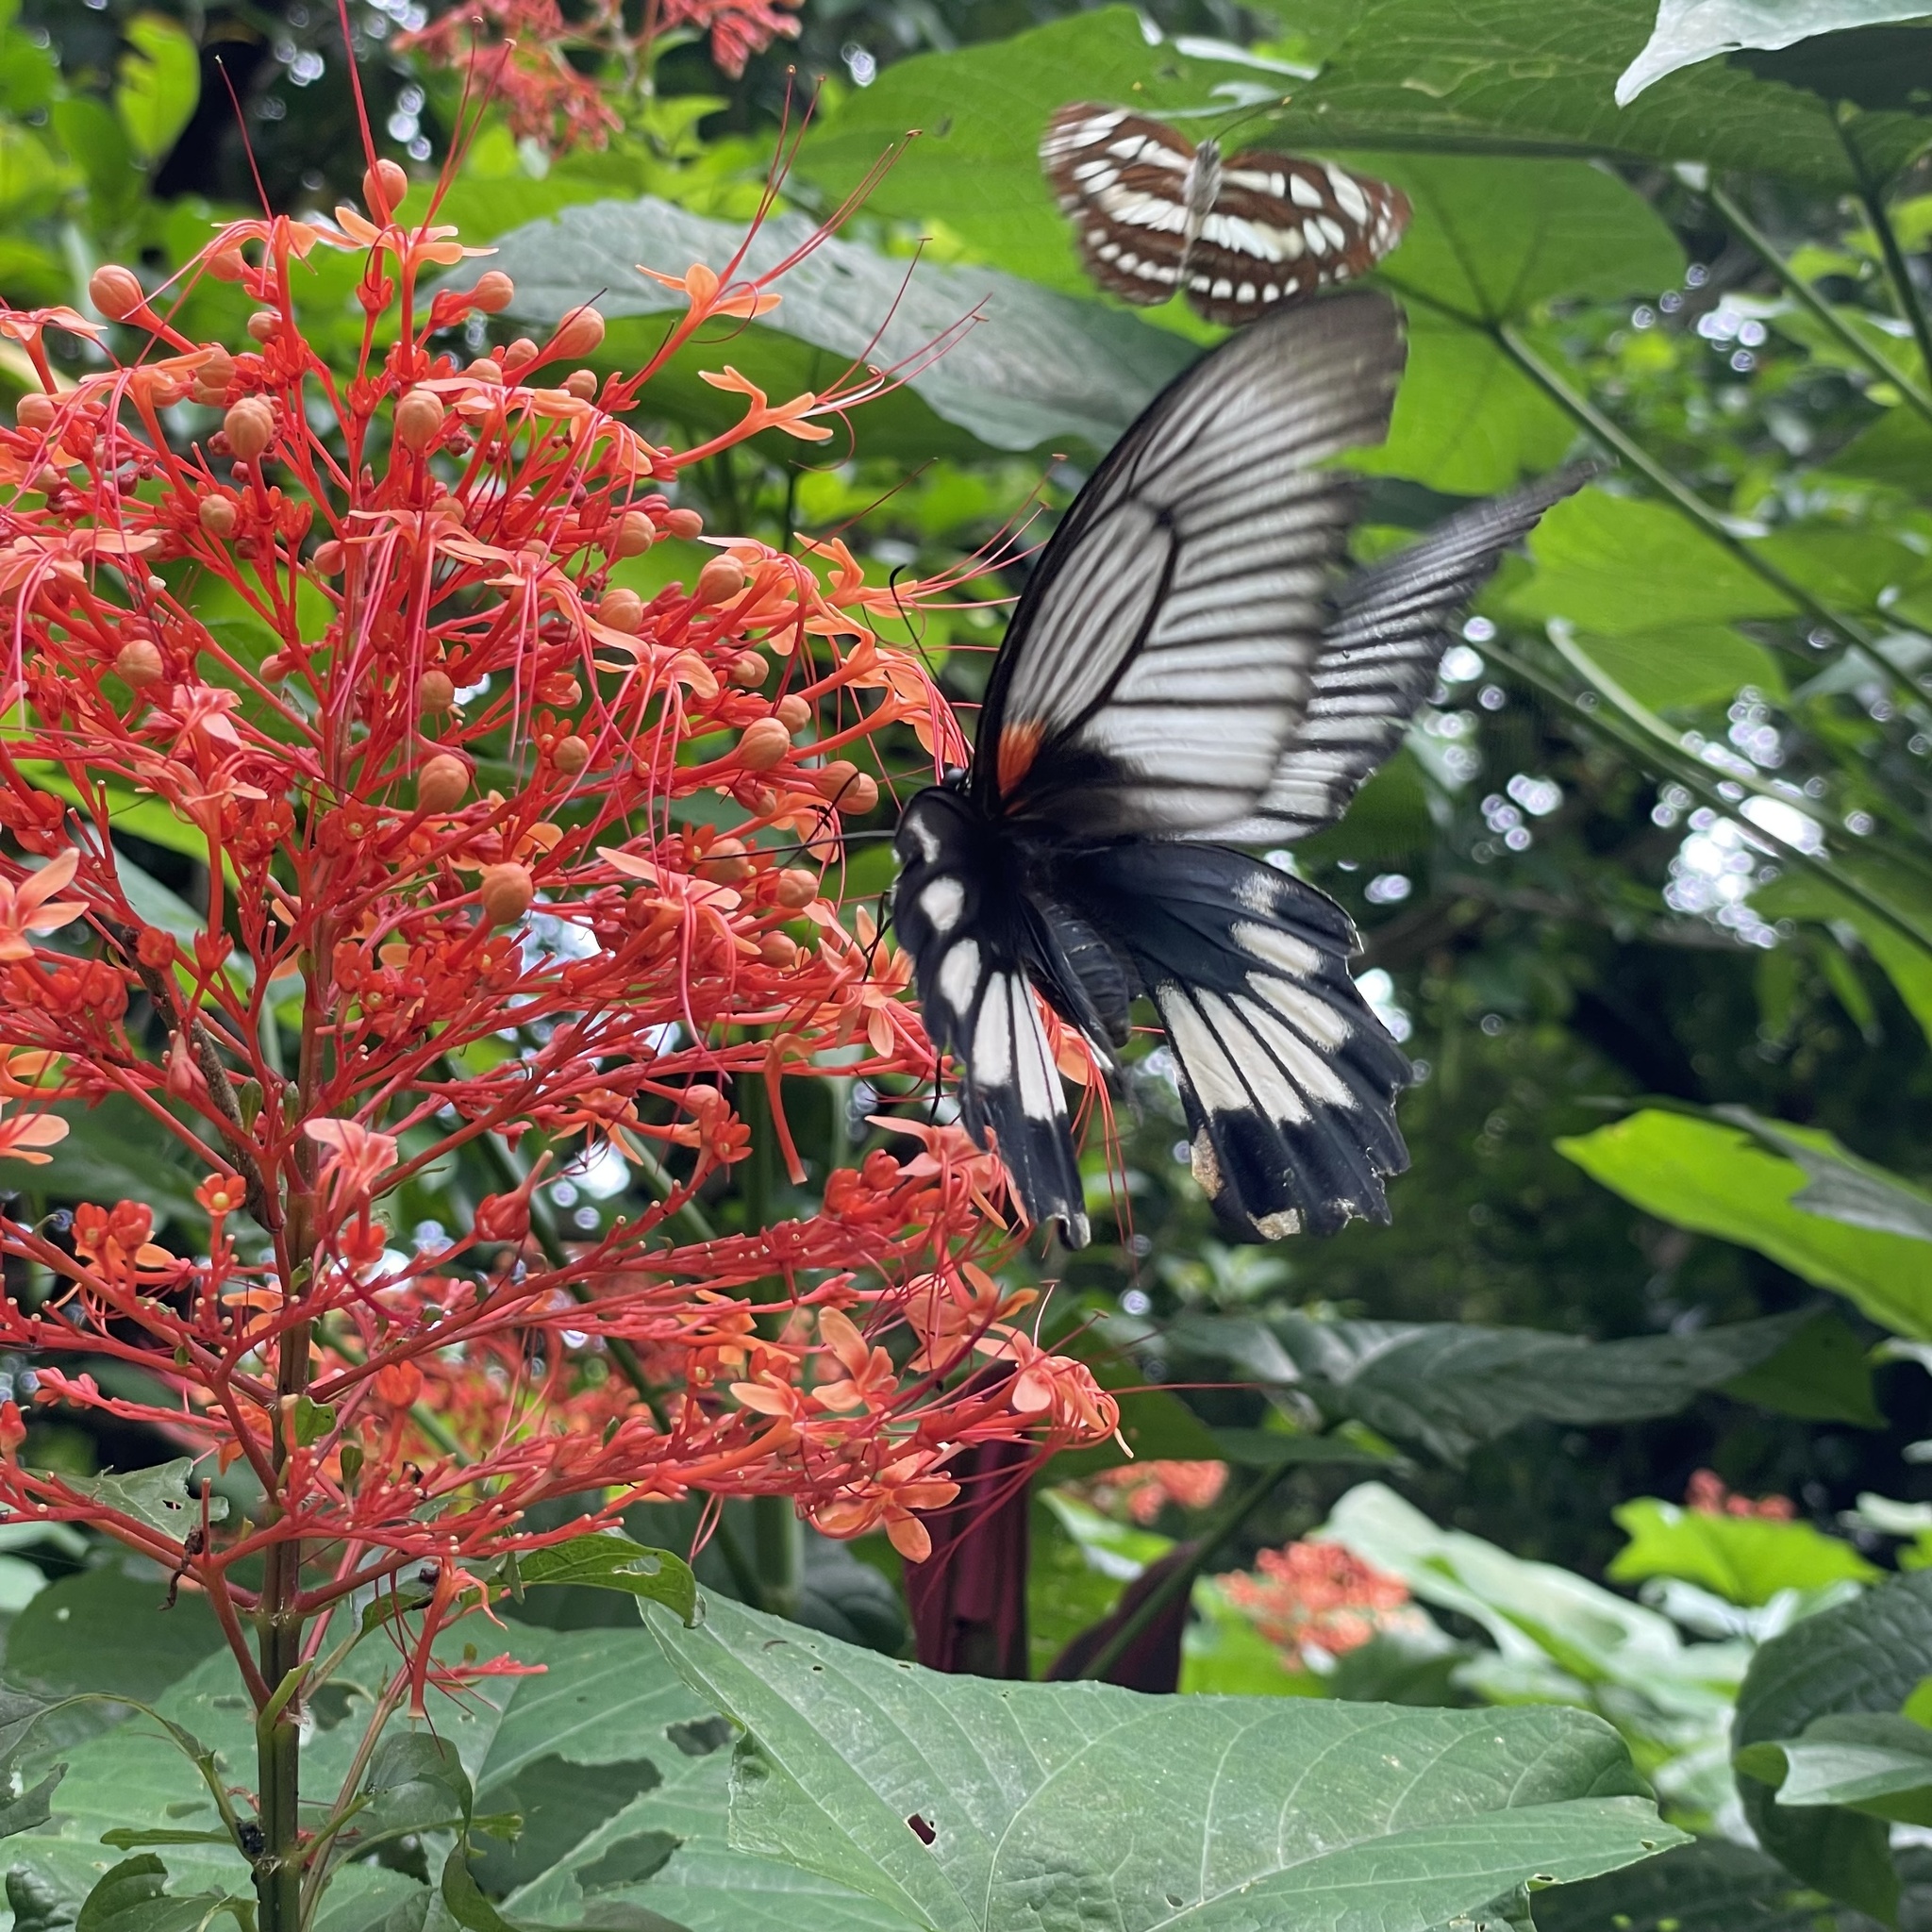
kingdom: Animalia
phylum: Arthropoda
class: Insecta
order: Lepidoptera
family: Nymphalidae
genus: Neptis
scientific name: Neptis hylas
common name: Common sailer
